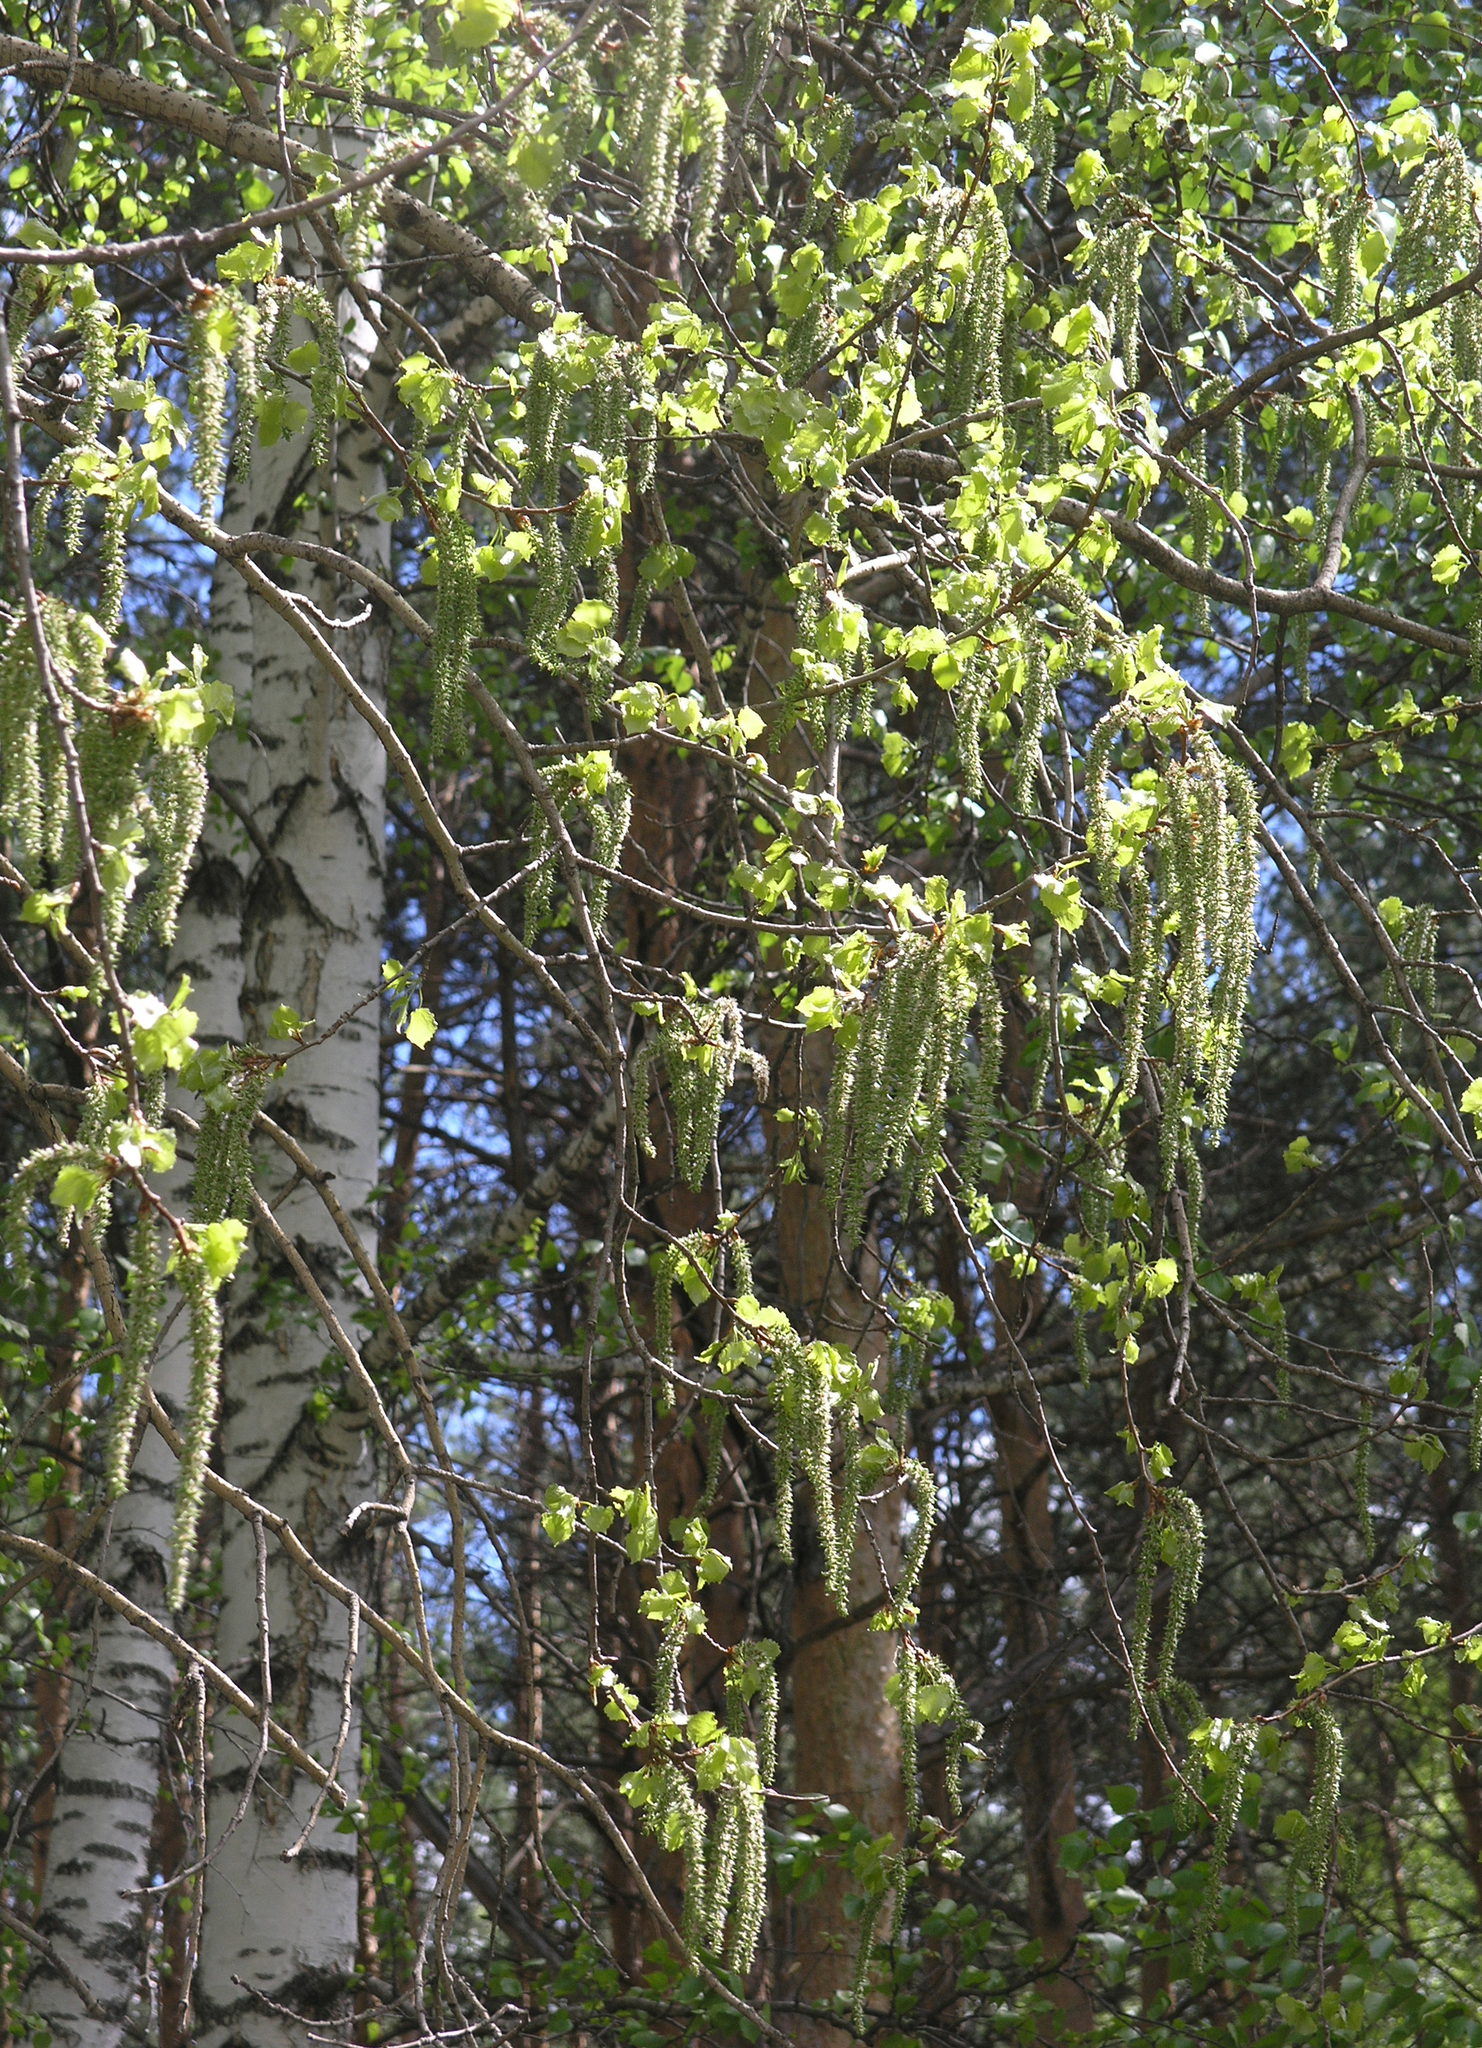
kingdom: Plantae
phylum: Tracheophyta
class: Magnoliopsida
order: Malpighiales
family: Salicaceae
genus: Populus
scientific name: Populus tremula
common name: European aspen
